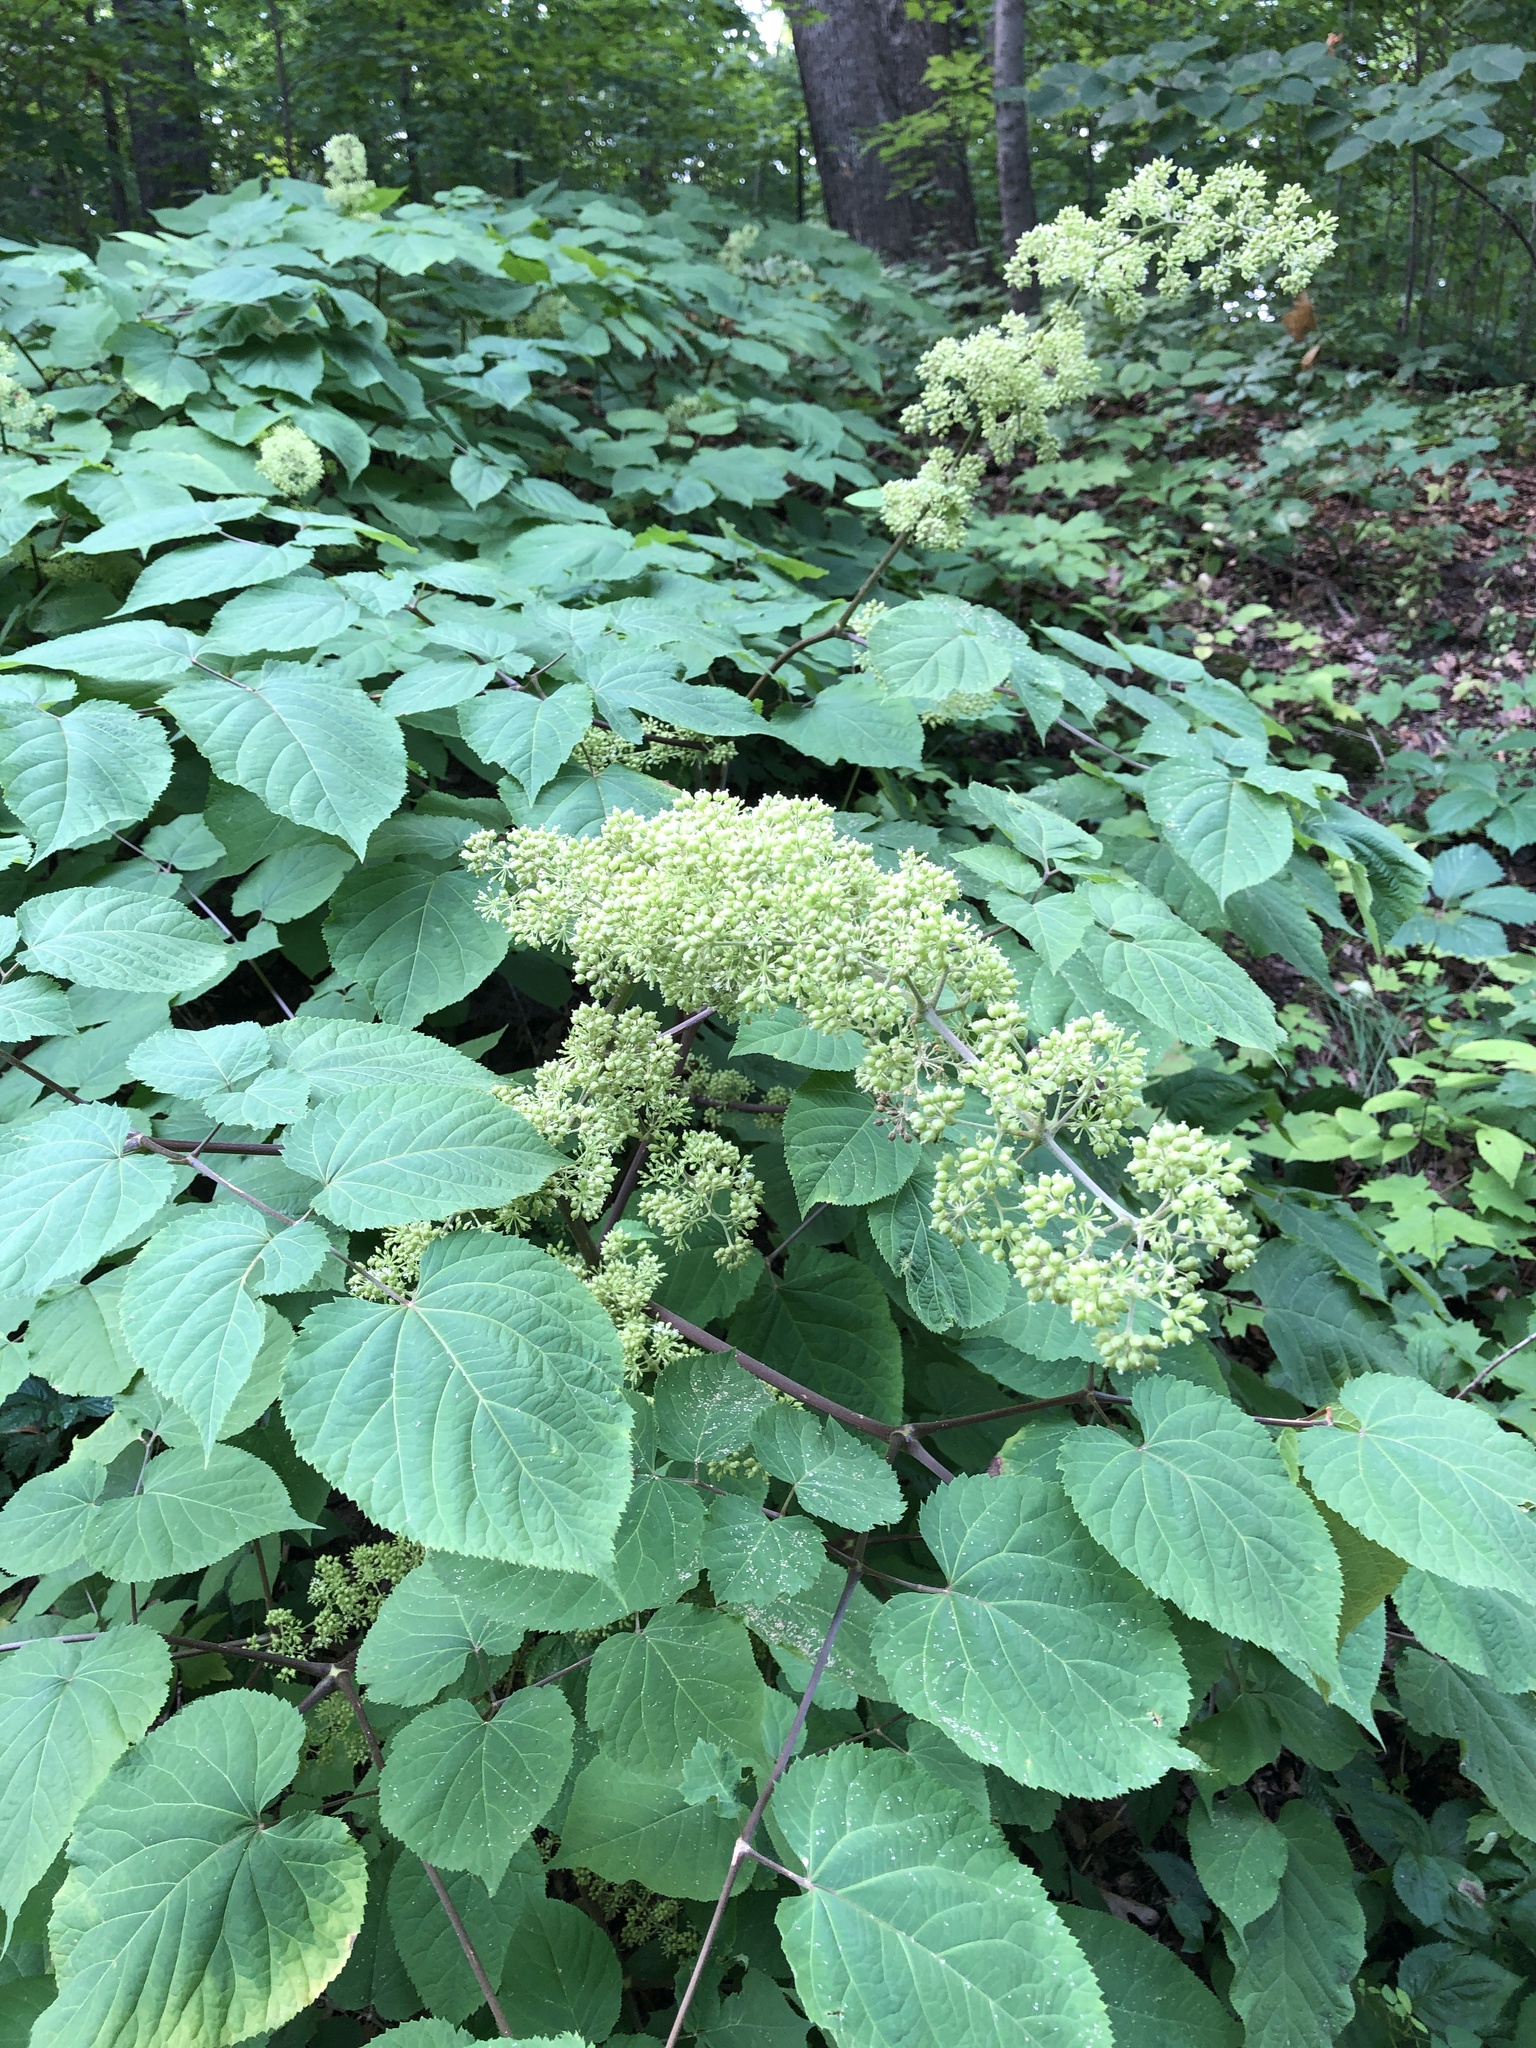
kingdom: Plantae
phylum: Tracheophyta
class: Magnoliopsida
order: Apiales
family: Araliaceae
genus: Aralia
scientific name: Aralia racemosa
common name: American-spikenard
